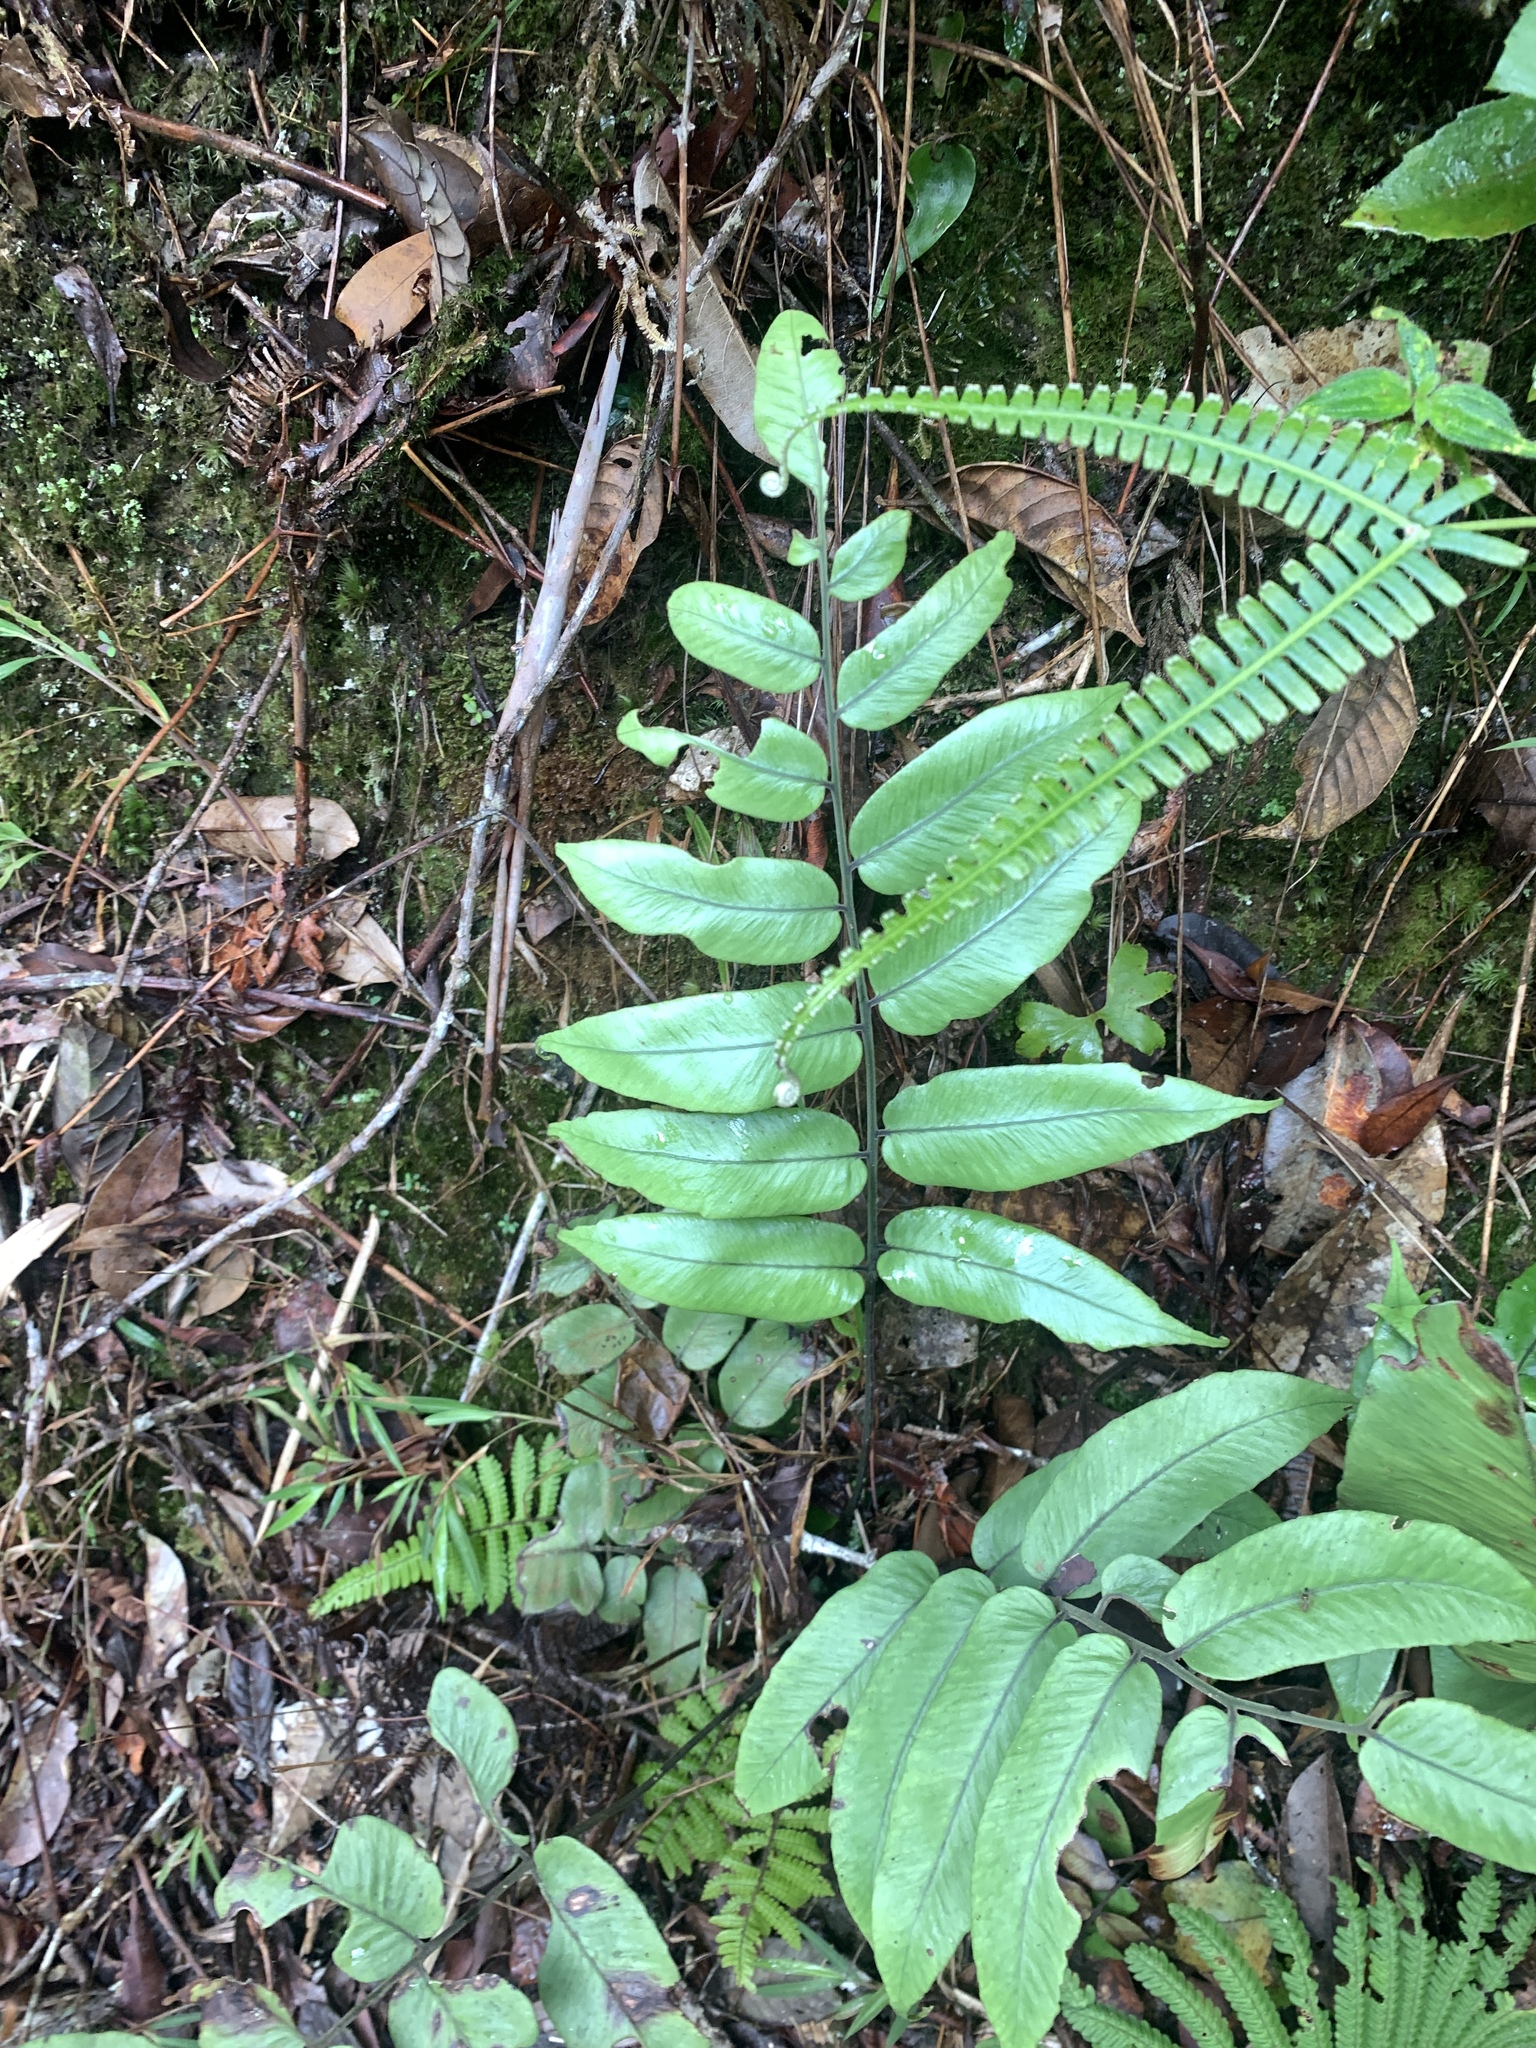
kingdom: Plantae
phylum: Tracheophyta
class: Polypodiopsida
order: Polypodiales
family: Athyriaceae
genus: Diplazium
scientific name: Diplazium cordifolium
